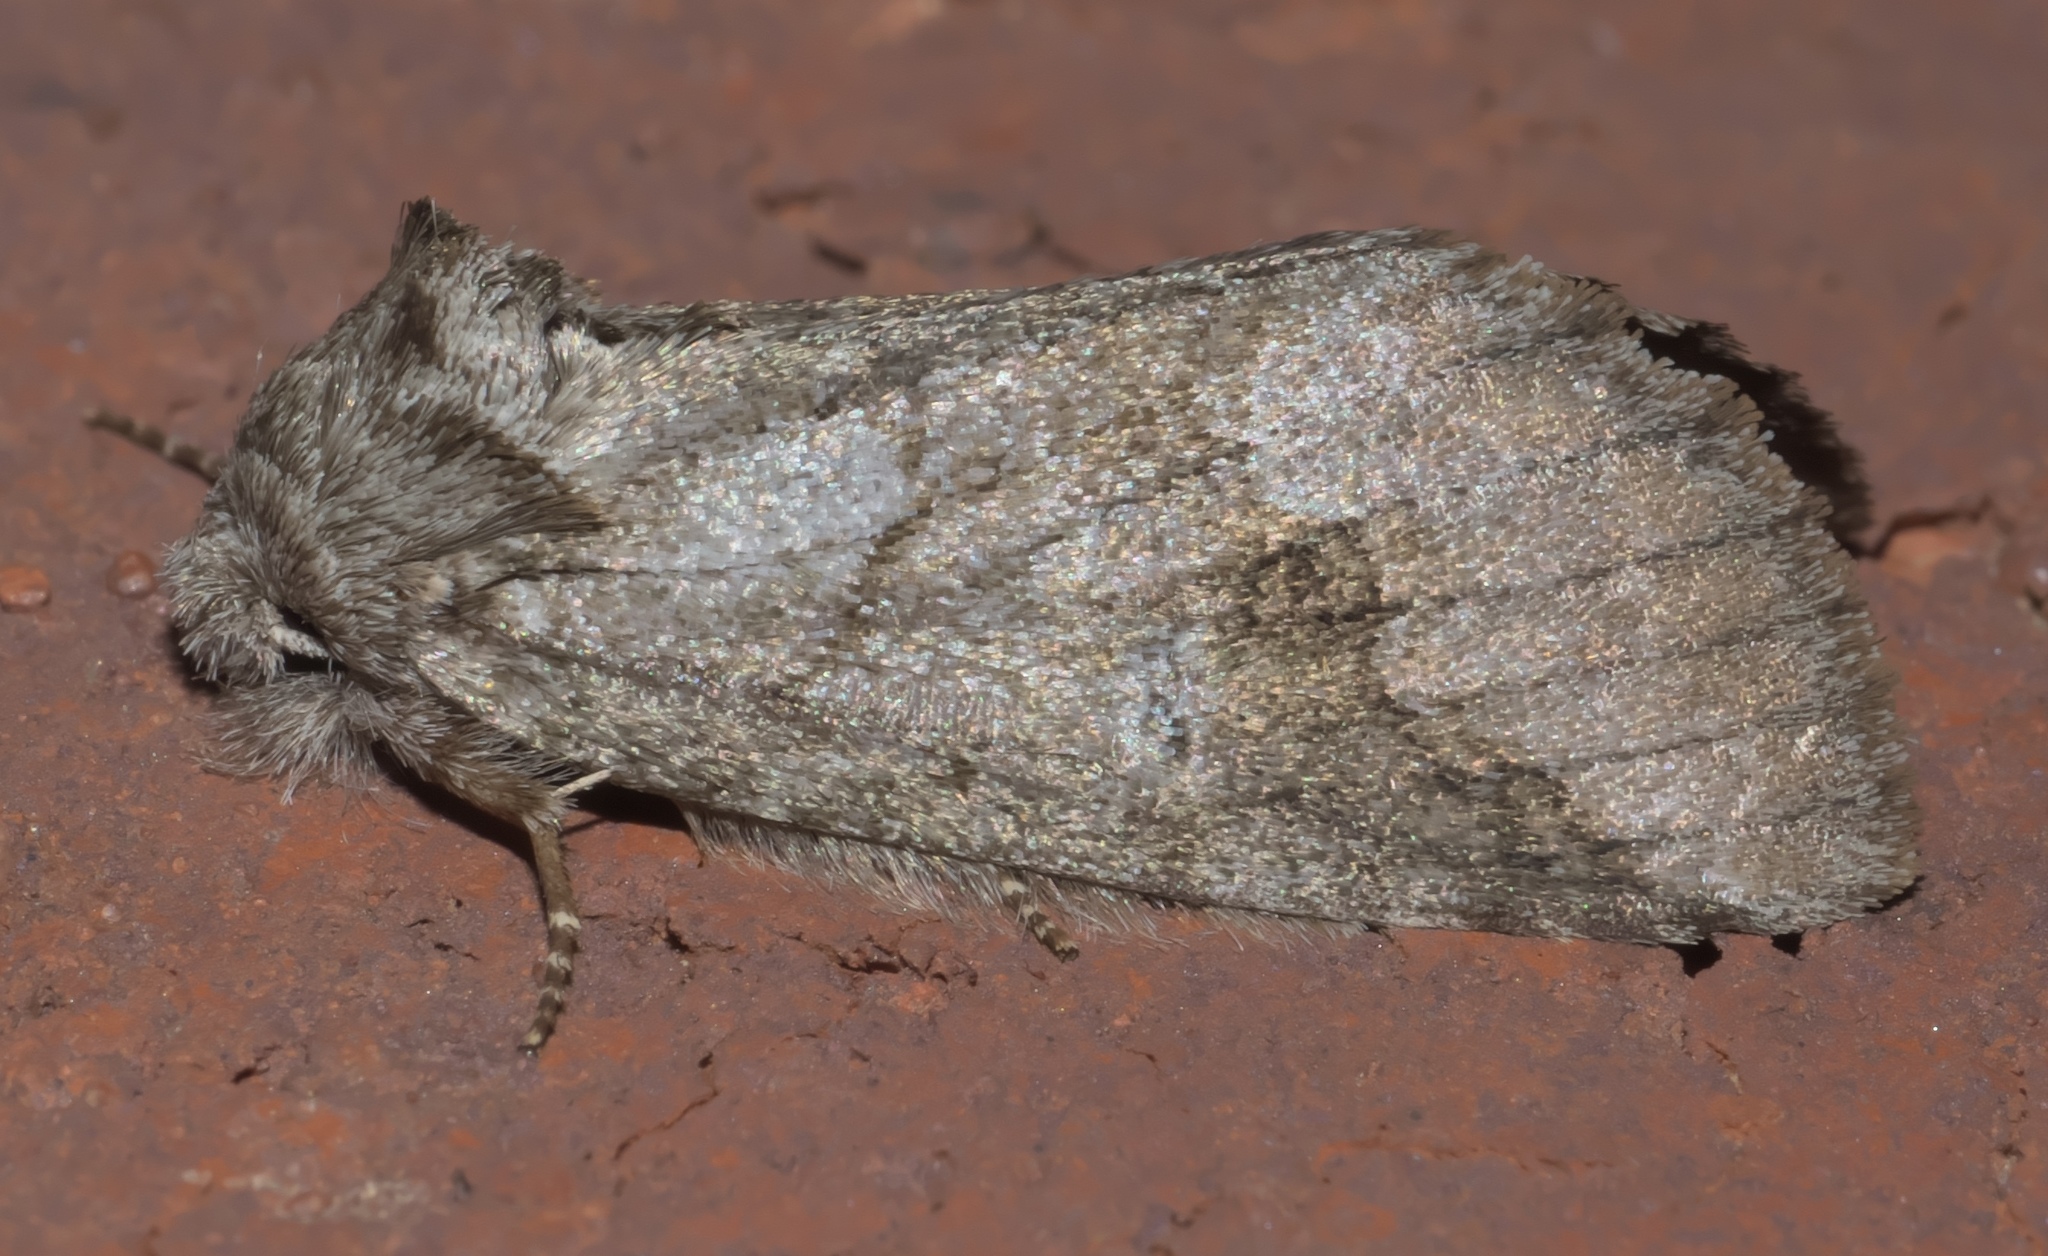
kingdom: Animalia
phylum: Arthropoda
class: Insecta
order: Lepidoptera
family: Notodontidae
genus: Lochmaeus
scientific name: Lochmaeus bilineata
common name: Double-lined prominent
